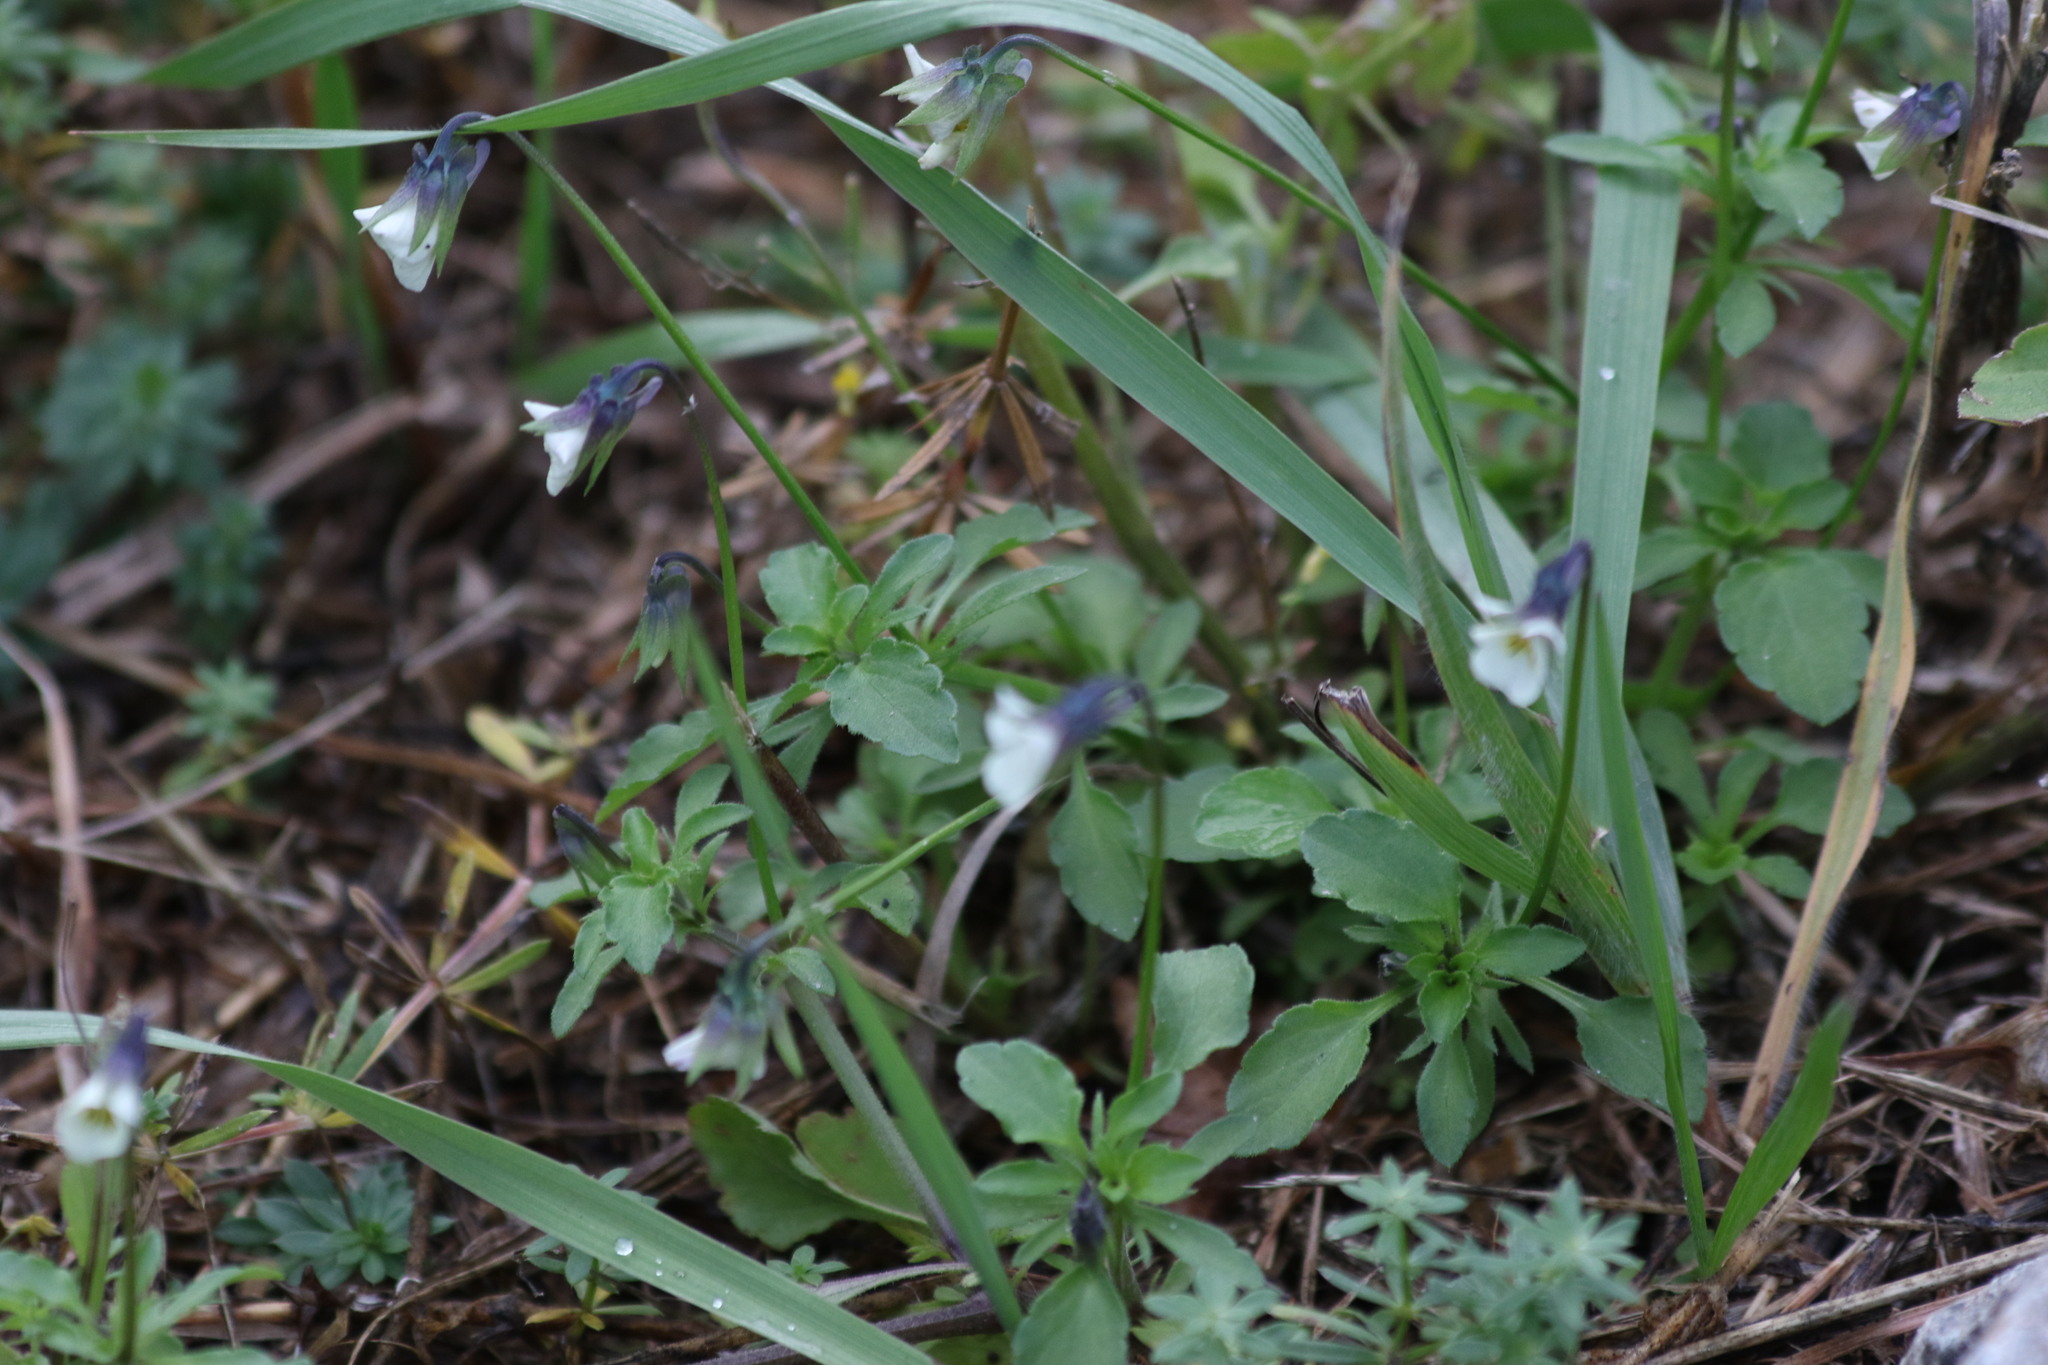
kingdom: Plantae
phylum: Tracheophyta
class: Magnoliopsida
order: Malpighiales
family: Violaceae
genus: Viola
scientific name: Viola arvensis
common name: Field pansy
